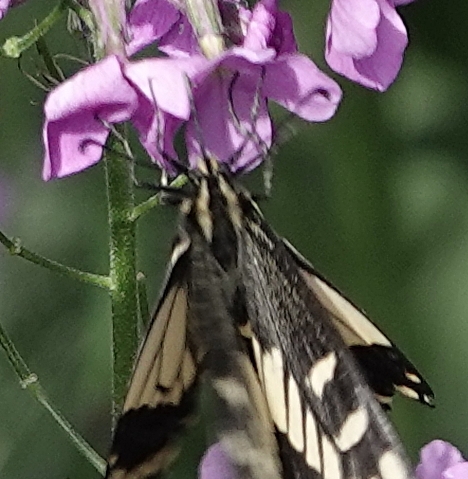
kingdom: Animalia
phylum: Arthropoda
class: Insecta
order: Lepidoptera
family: Papilionidae
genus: Papilio
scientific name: Papilio zelicaon
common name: Anise swallowtail
